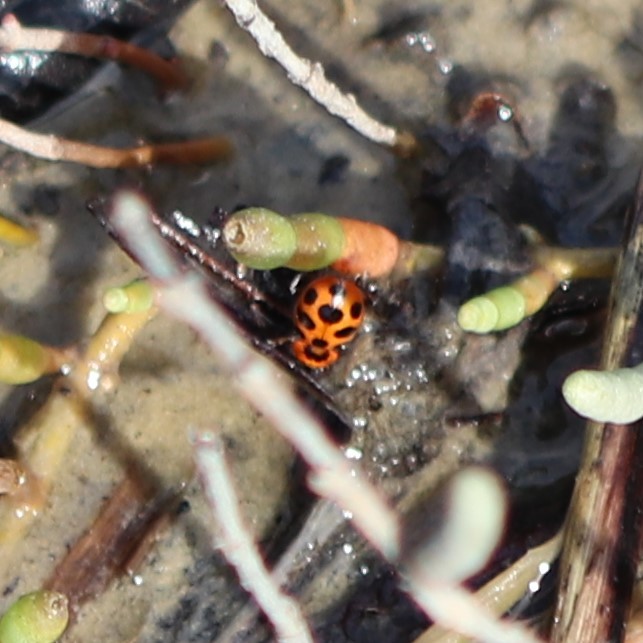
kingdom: Animalia
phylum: Arthropoda
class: Insecta
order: Coleoptera
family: Coccinellidae
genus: Naemia
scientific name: Naemia seriata
